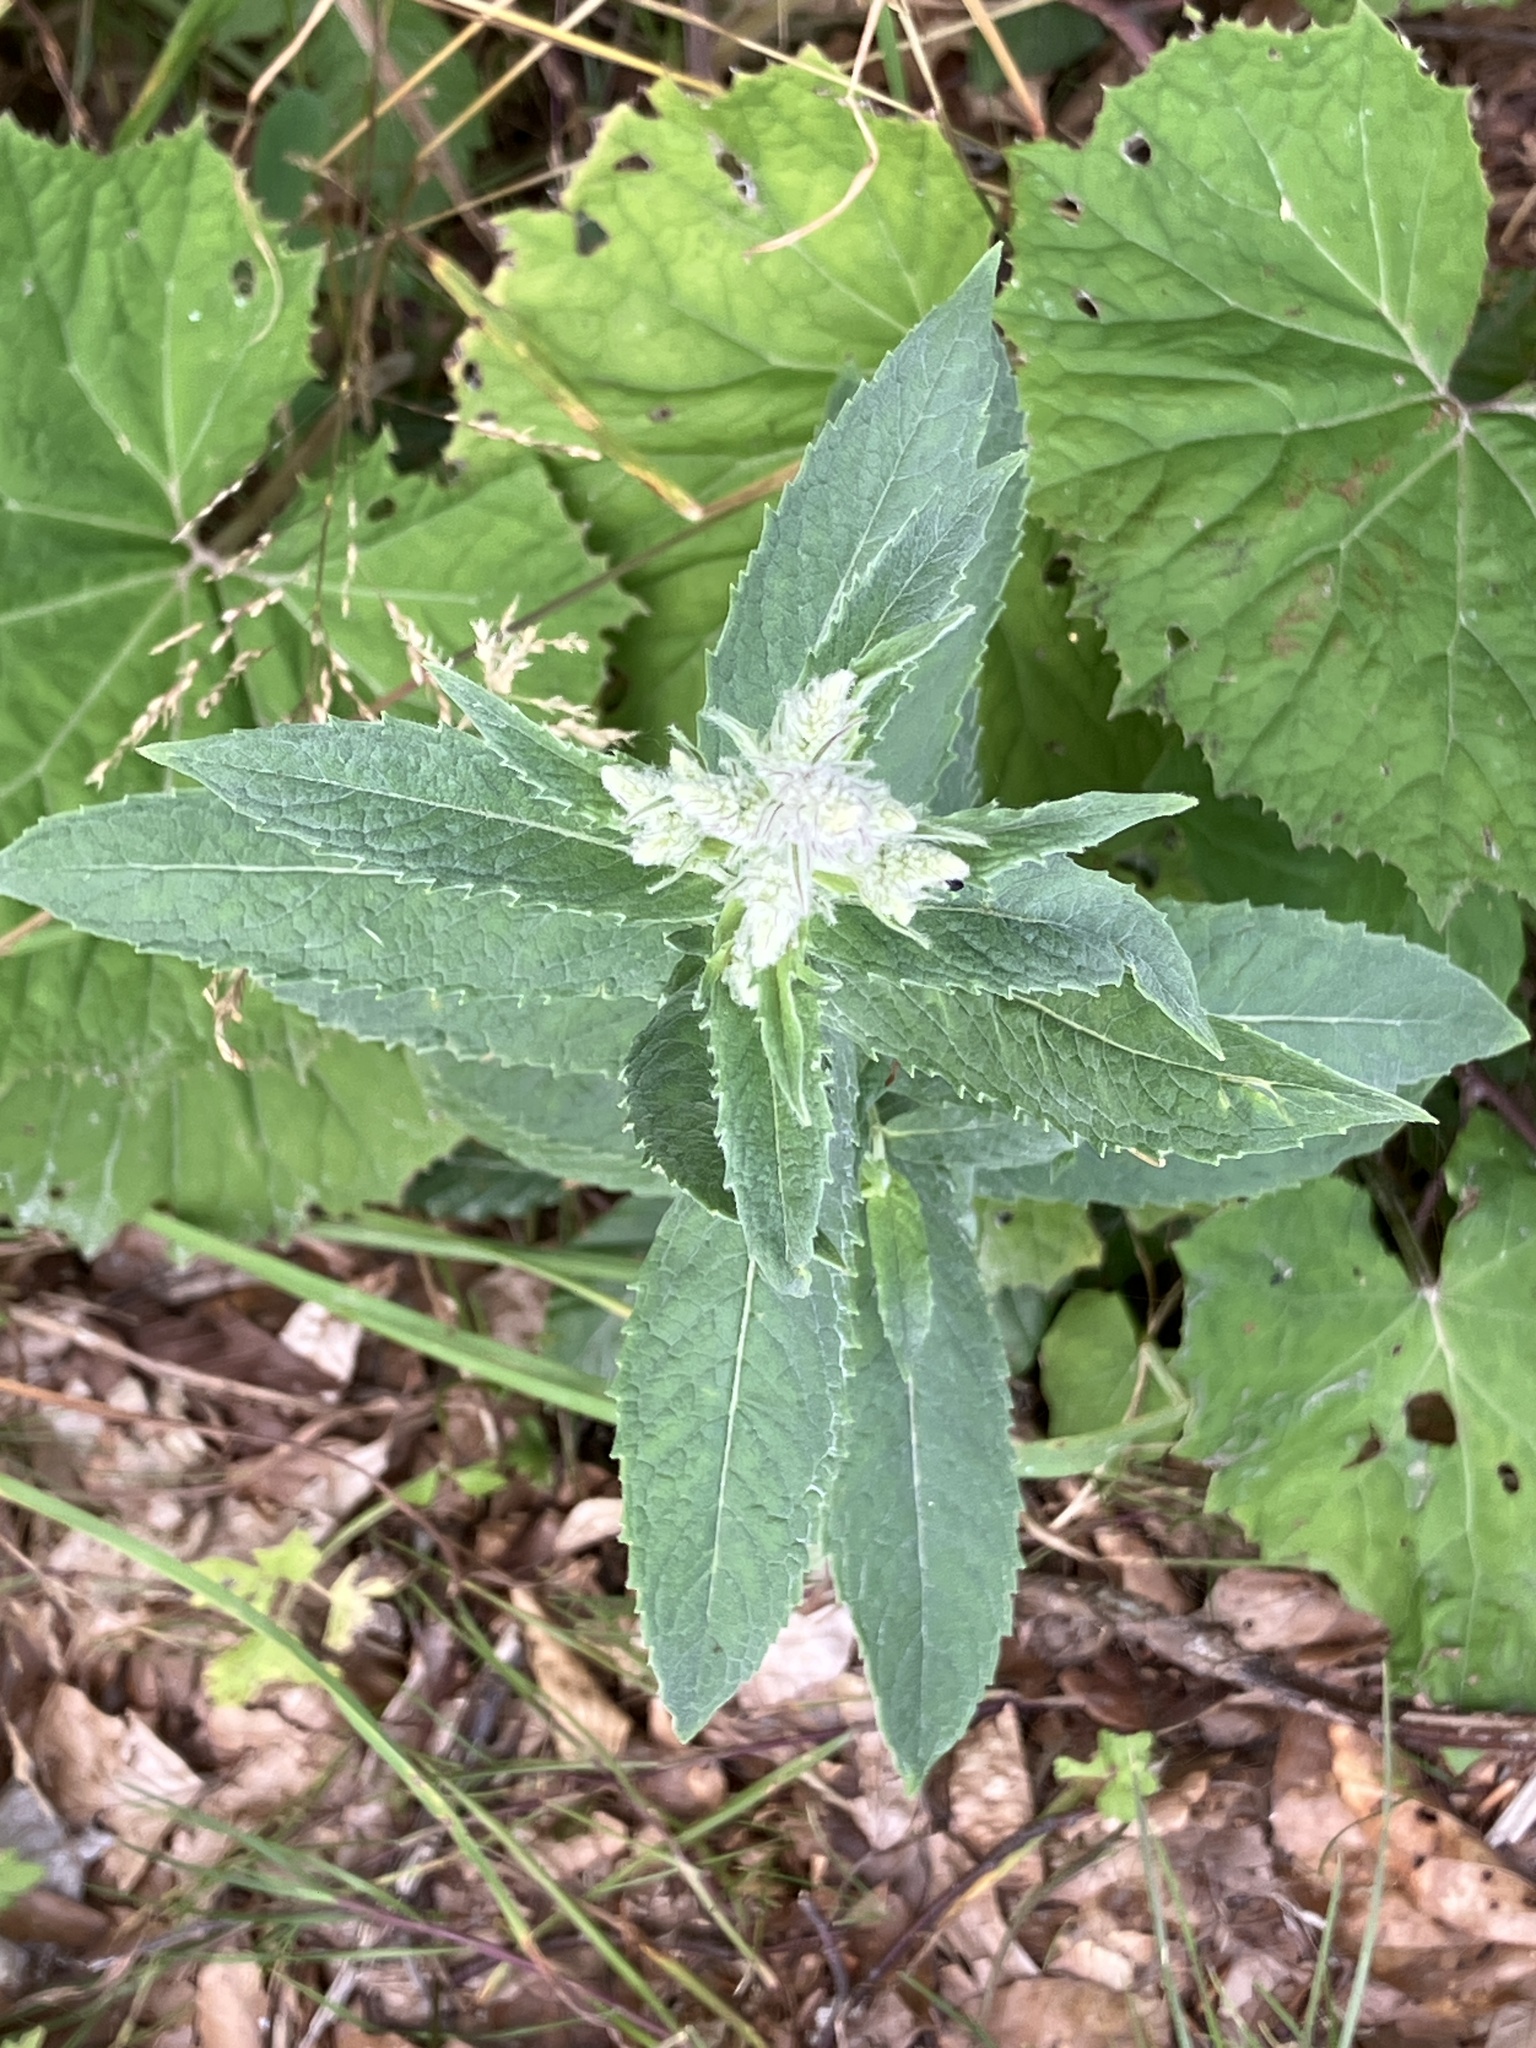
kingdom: Plantae
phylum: Tracheophyta
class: Magnoliopsida
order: Lamiales
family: Lamiaceae
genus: Mentha
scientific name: Mentha longifolia
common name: Horse mint
